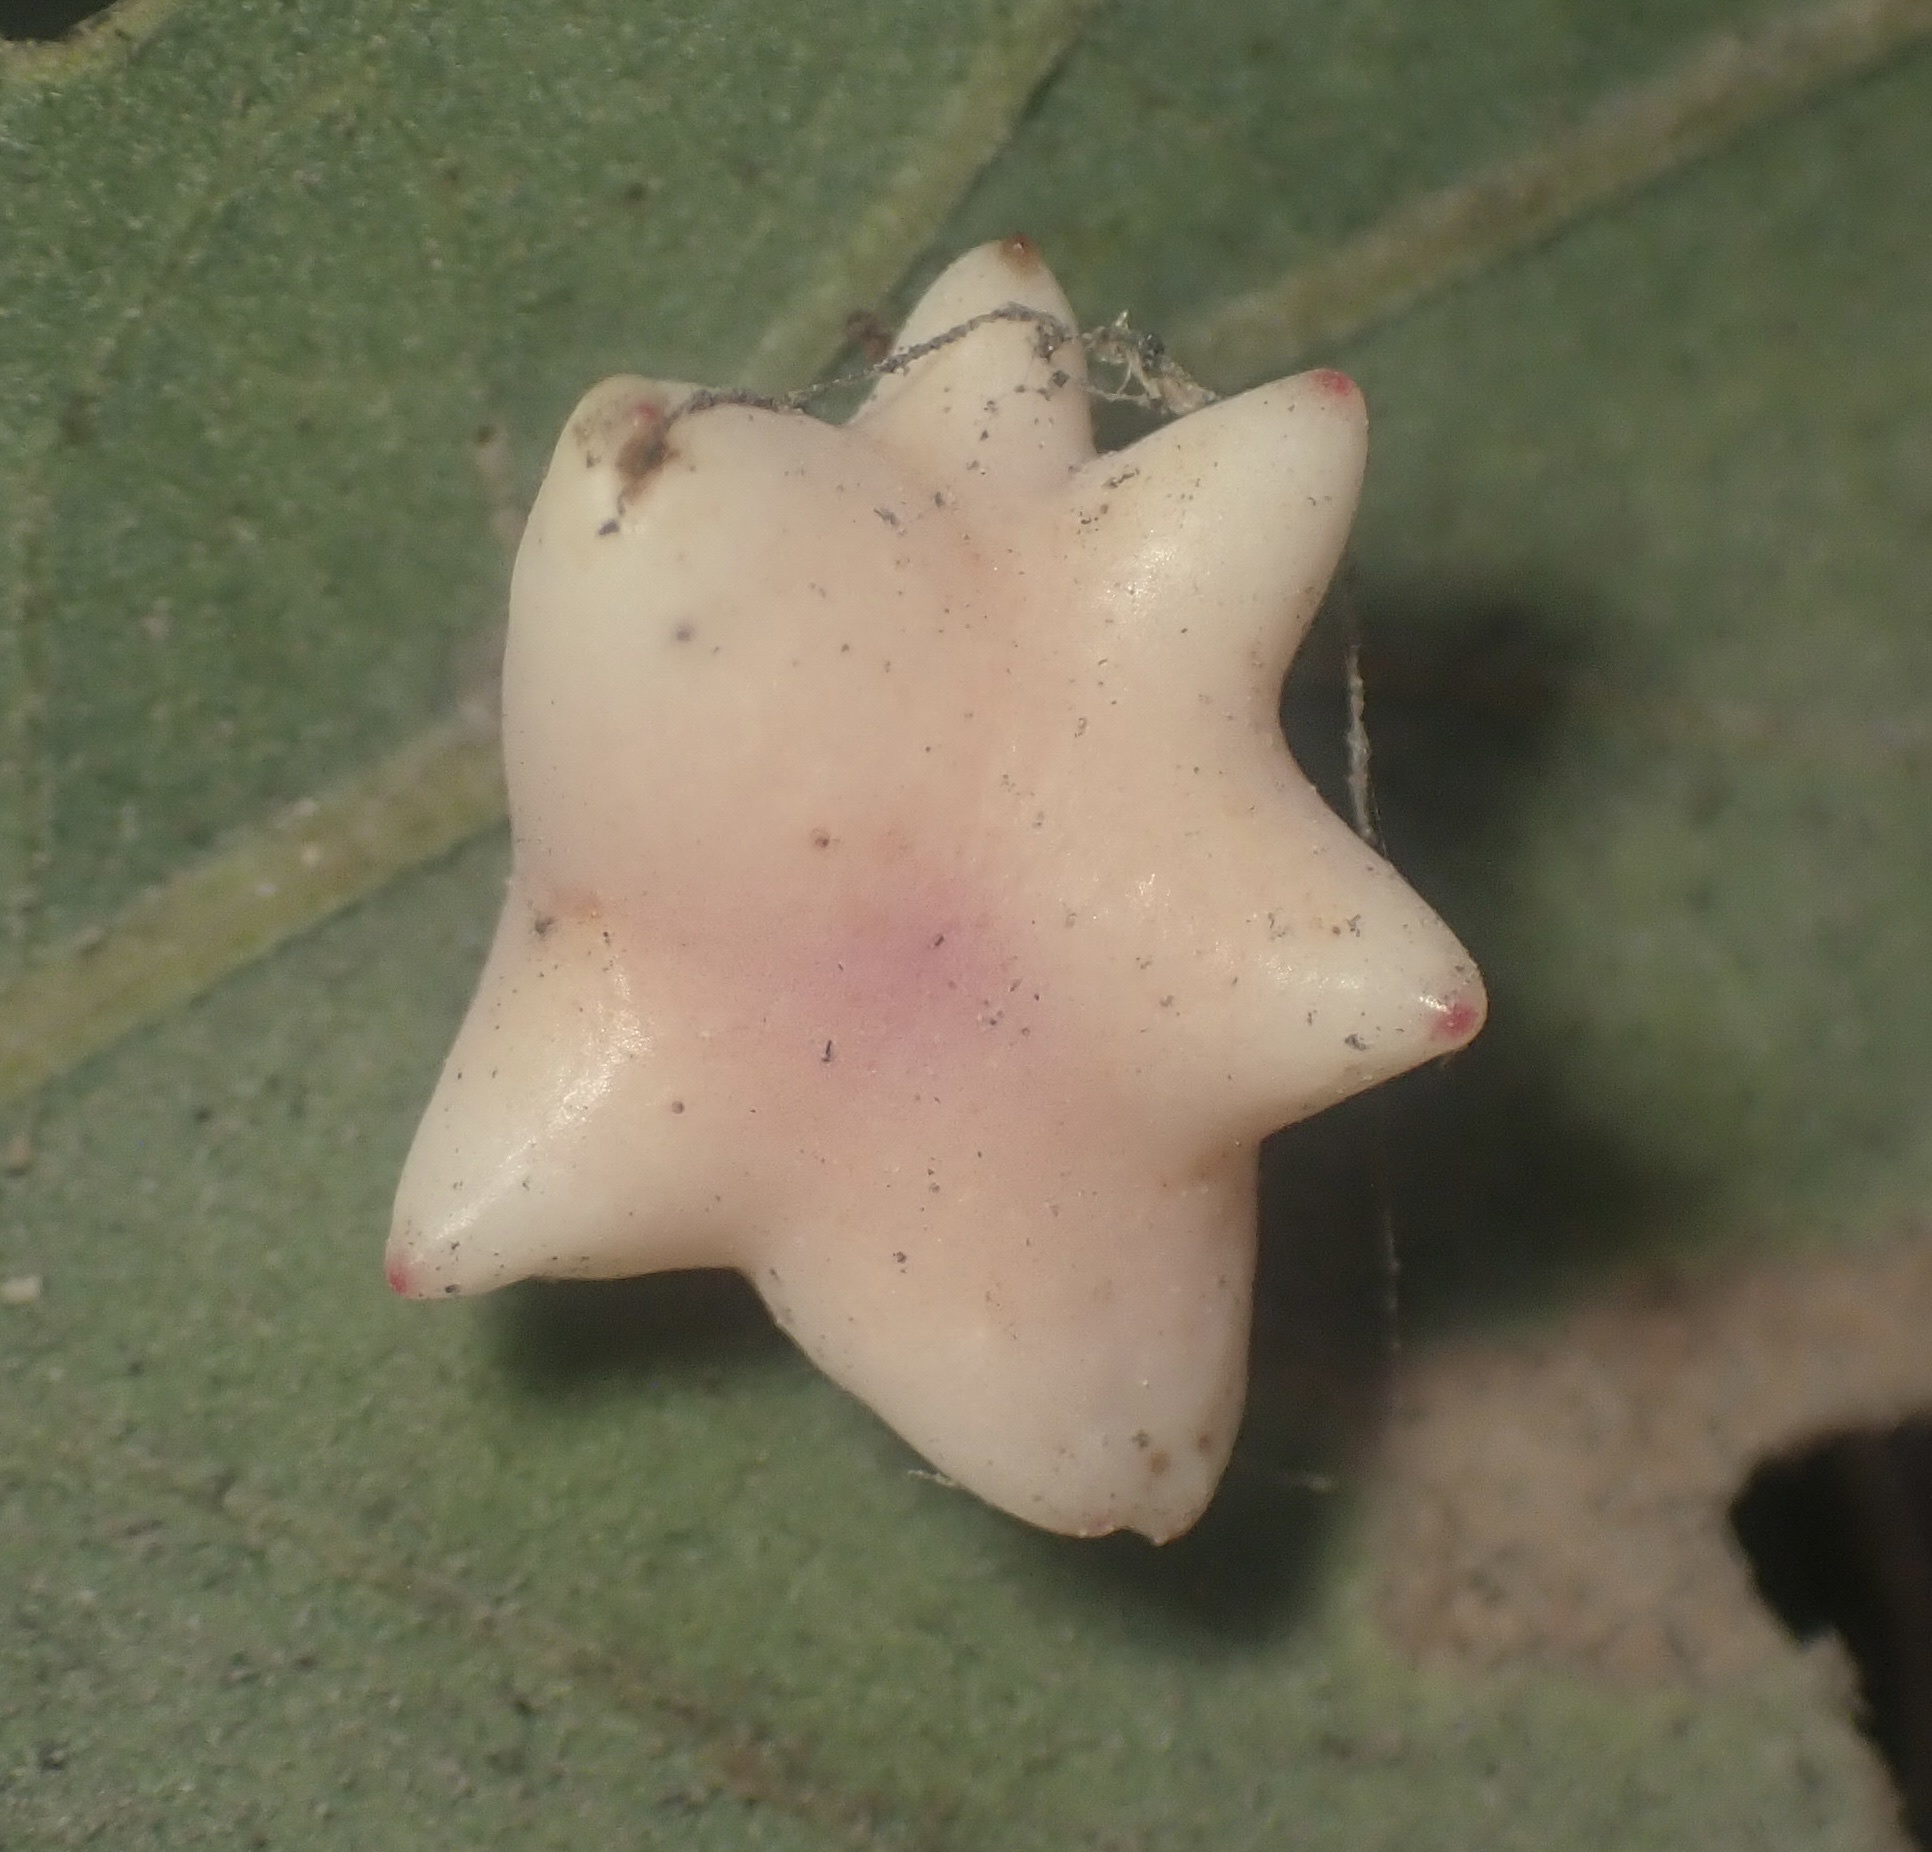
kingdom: Animalia
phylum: Arthropoda
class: Insecta
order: Hymenoptera
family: Cynipidae
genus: Cynips
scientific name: Cynips douglasi
